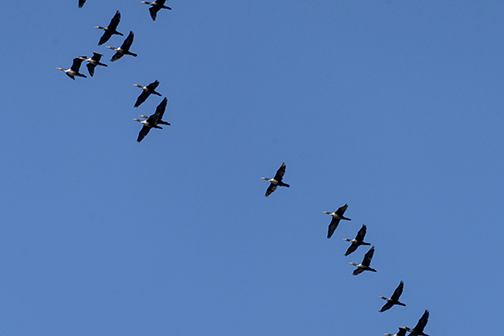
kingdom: Animalia
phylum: Chordata
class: Aves
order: Suliformes
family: Phalacrocoracidae
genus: Phalacrocorax
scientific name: Phalacrocorax auritus
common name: Double-crested cormorant
